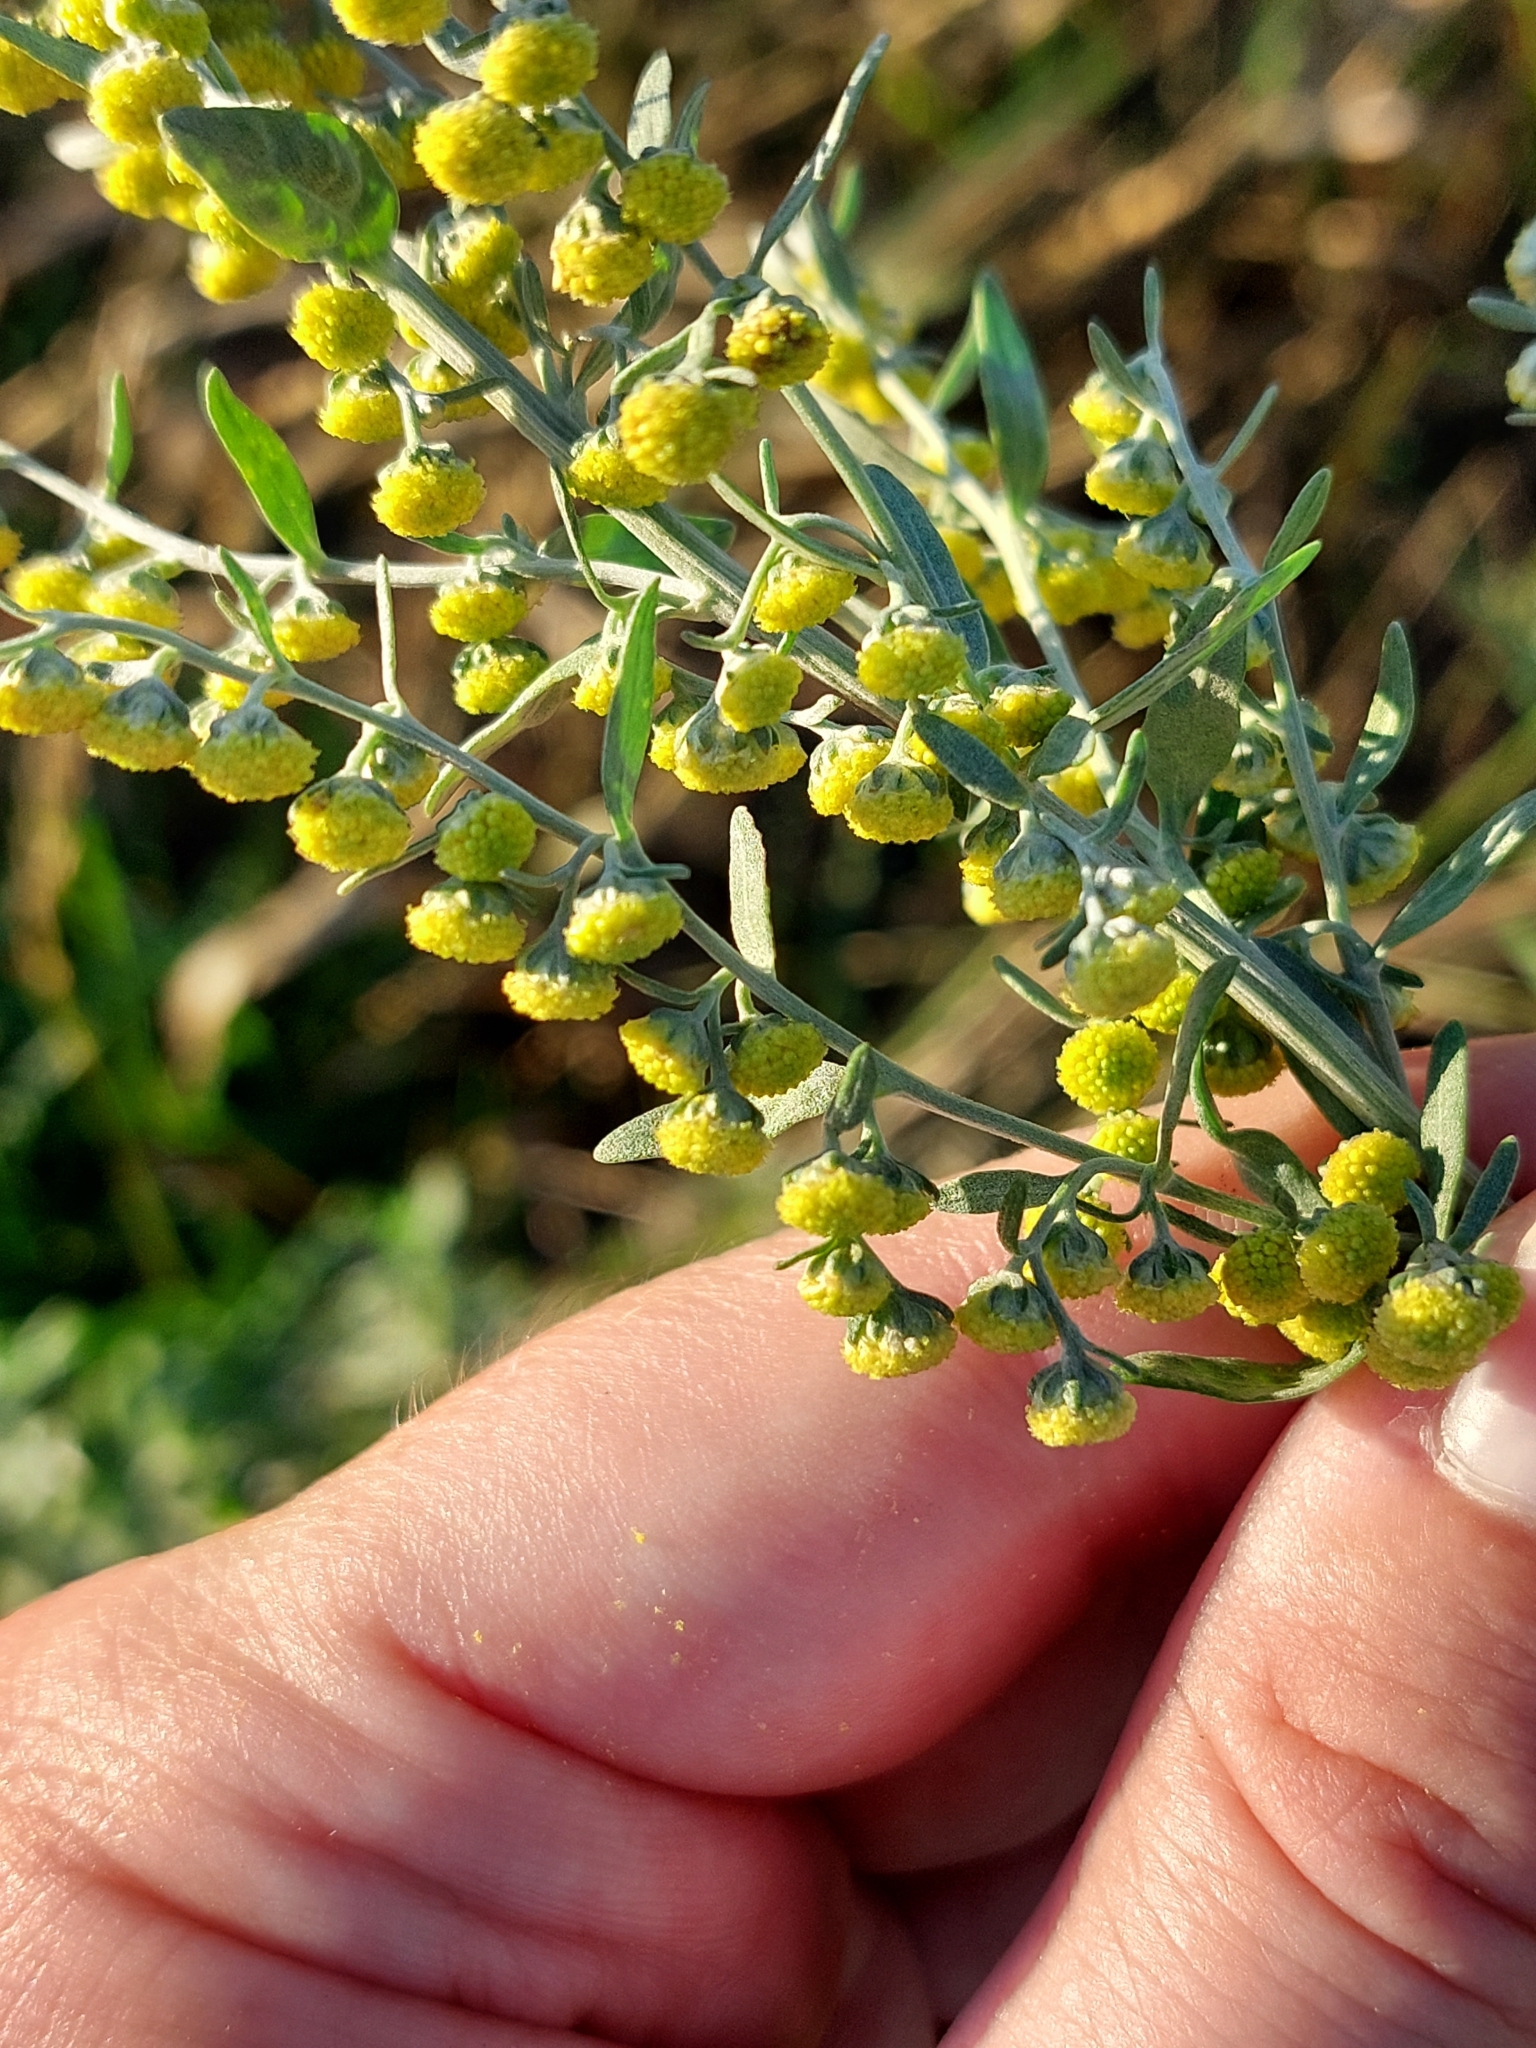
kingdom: Plantae
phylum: Tracheophyta
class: Magnoliopsida
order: Asterales
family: Asteraceae
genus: Artemisia
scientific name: Artemisia absinthium
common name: Wormwood
